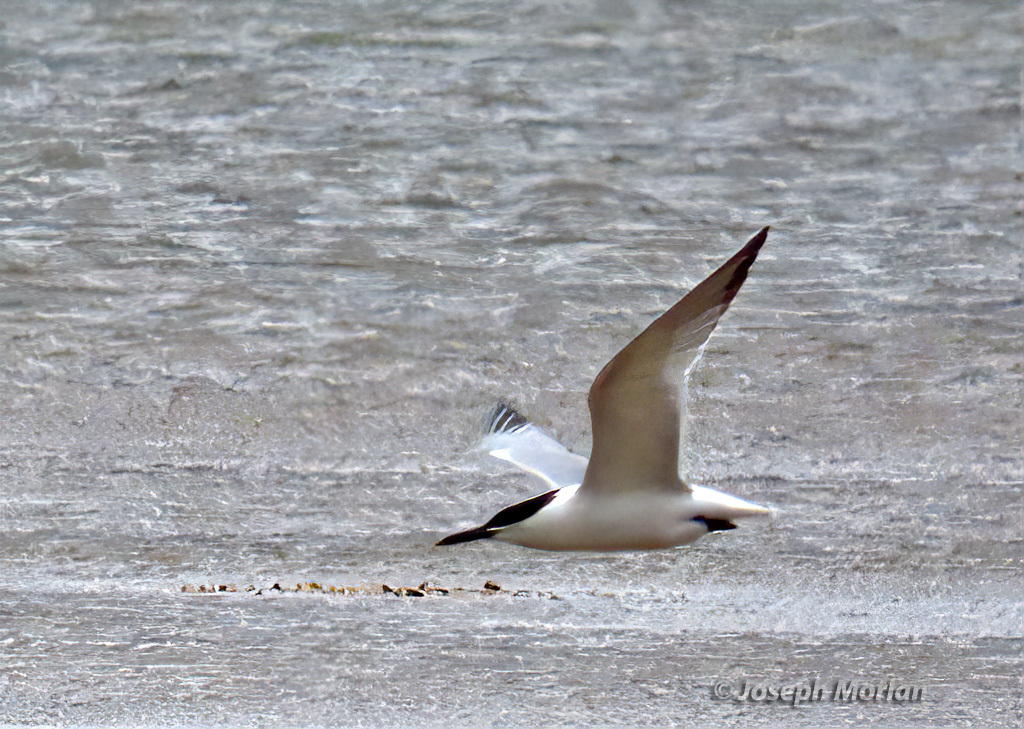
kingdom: Animalia
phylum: Chordata
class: Aves
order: Charadriiformes
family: Laridae
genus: Thalasseus
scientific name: Thalasseus sandvicensis
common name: Sandwich tern
